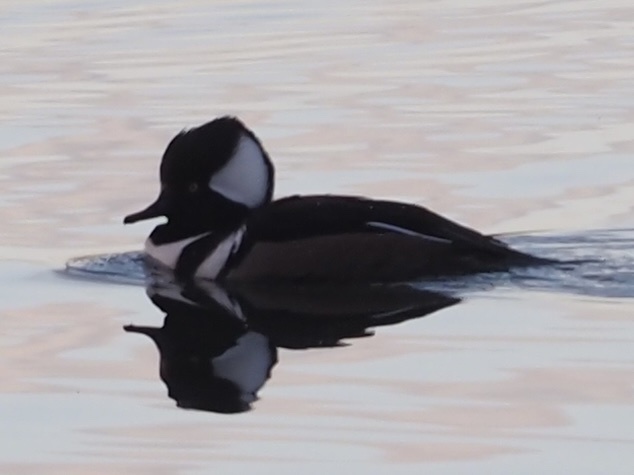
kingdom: Animalia
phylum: Chordata
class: Aves
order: Anseriformes
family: Anatidae
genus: Lophodytes
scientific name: Lophodytes cucullatus
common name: Hooded merganser
